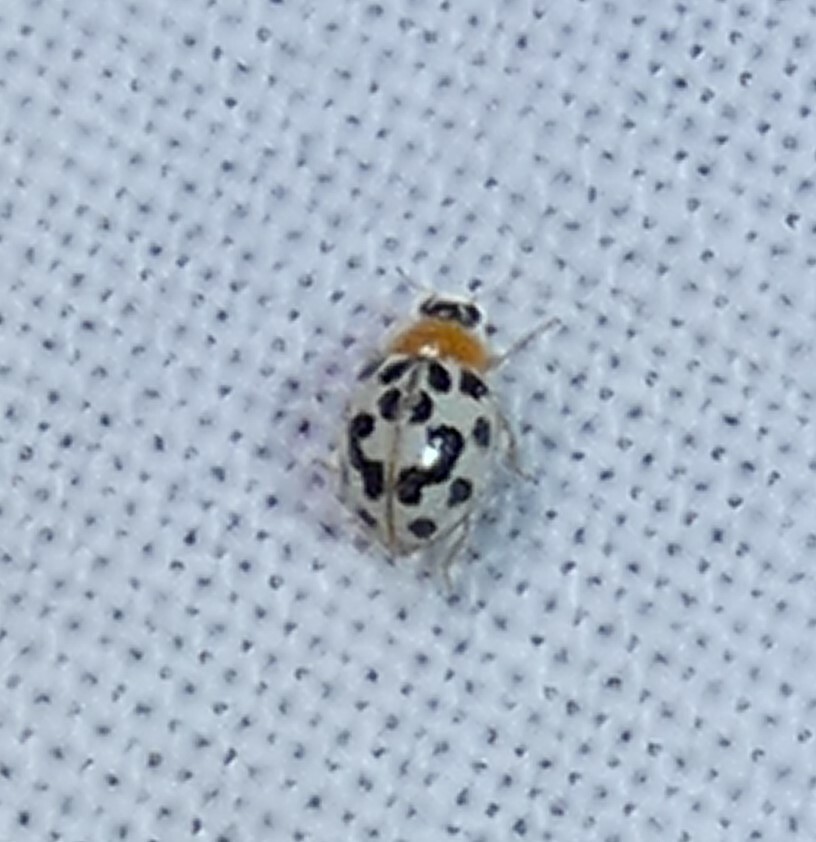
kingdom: Animalia
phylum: Arthropoda
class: Insecta
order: Coleoptera
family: Coccinellidae
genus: Psyllobora
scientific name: Psyllobora parvinotata
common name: Small-spotted psyllobora
